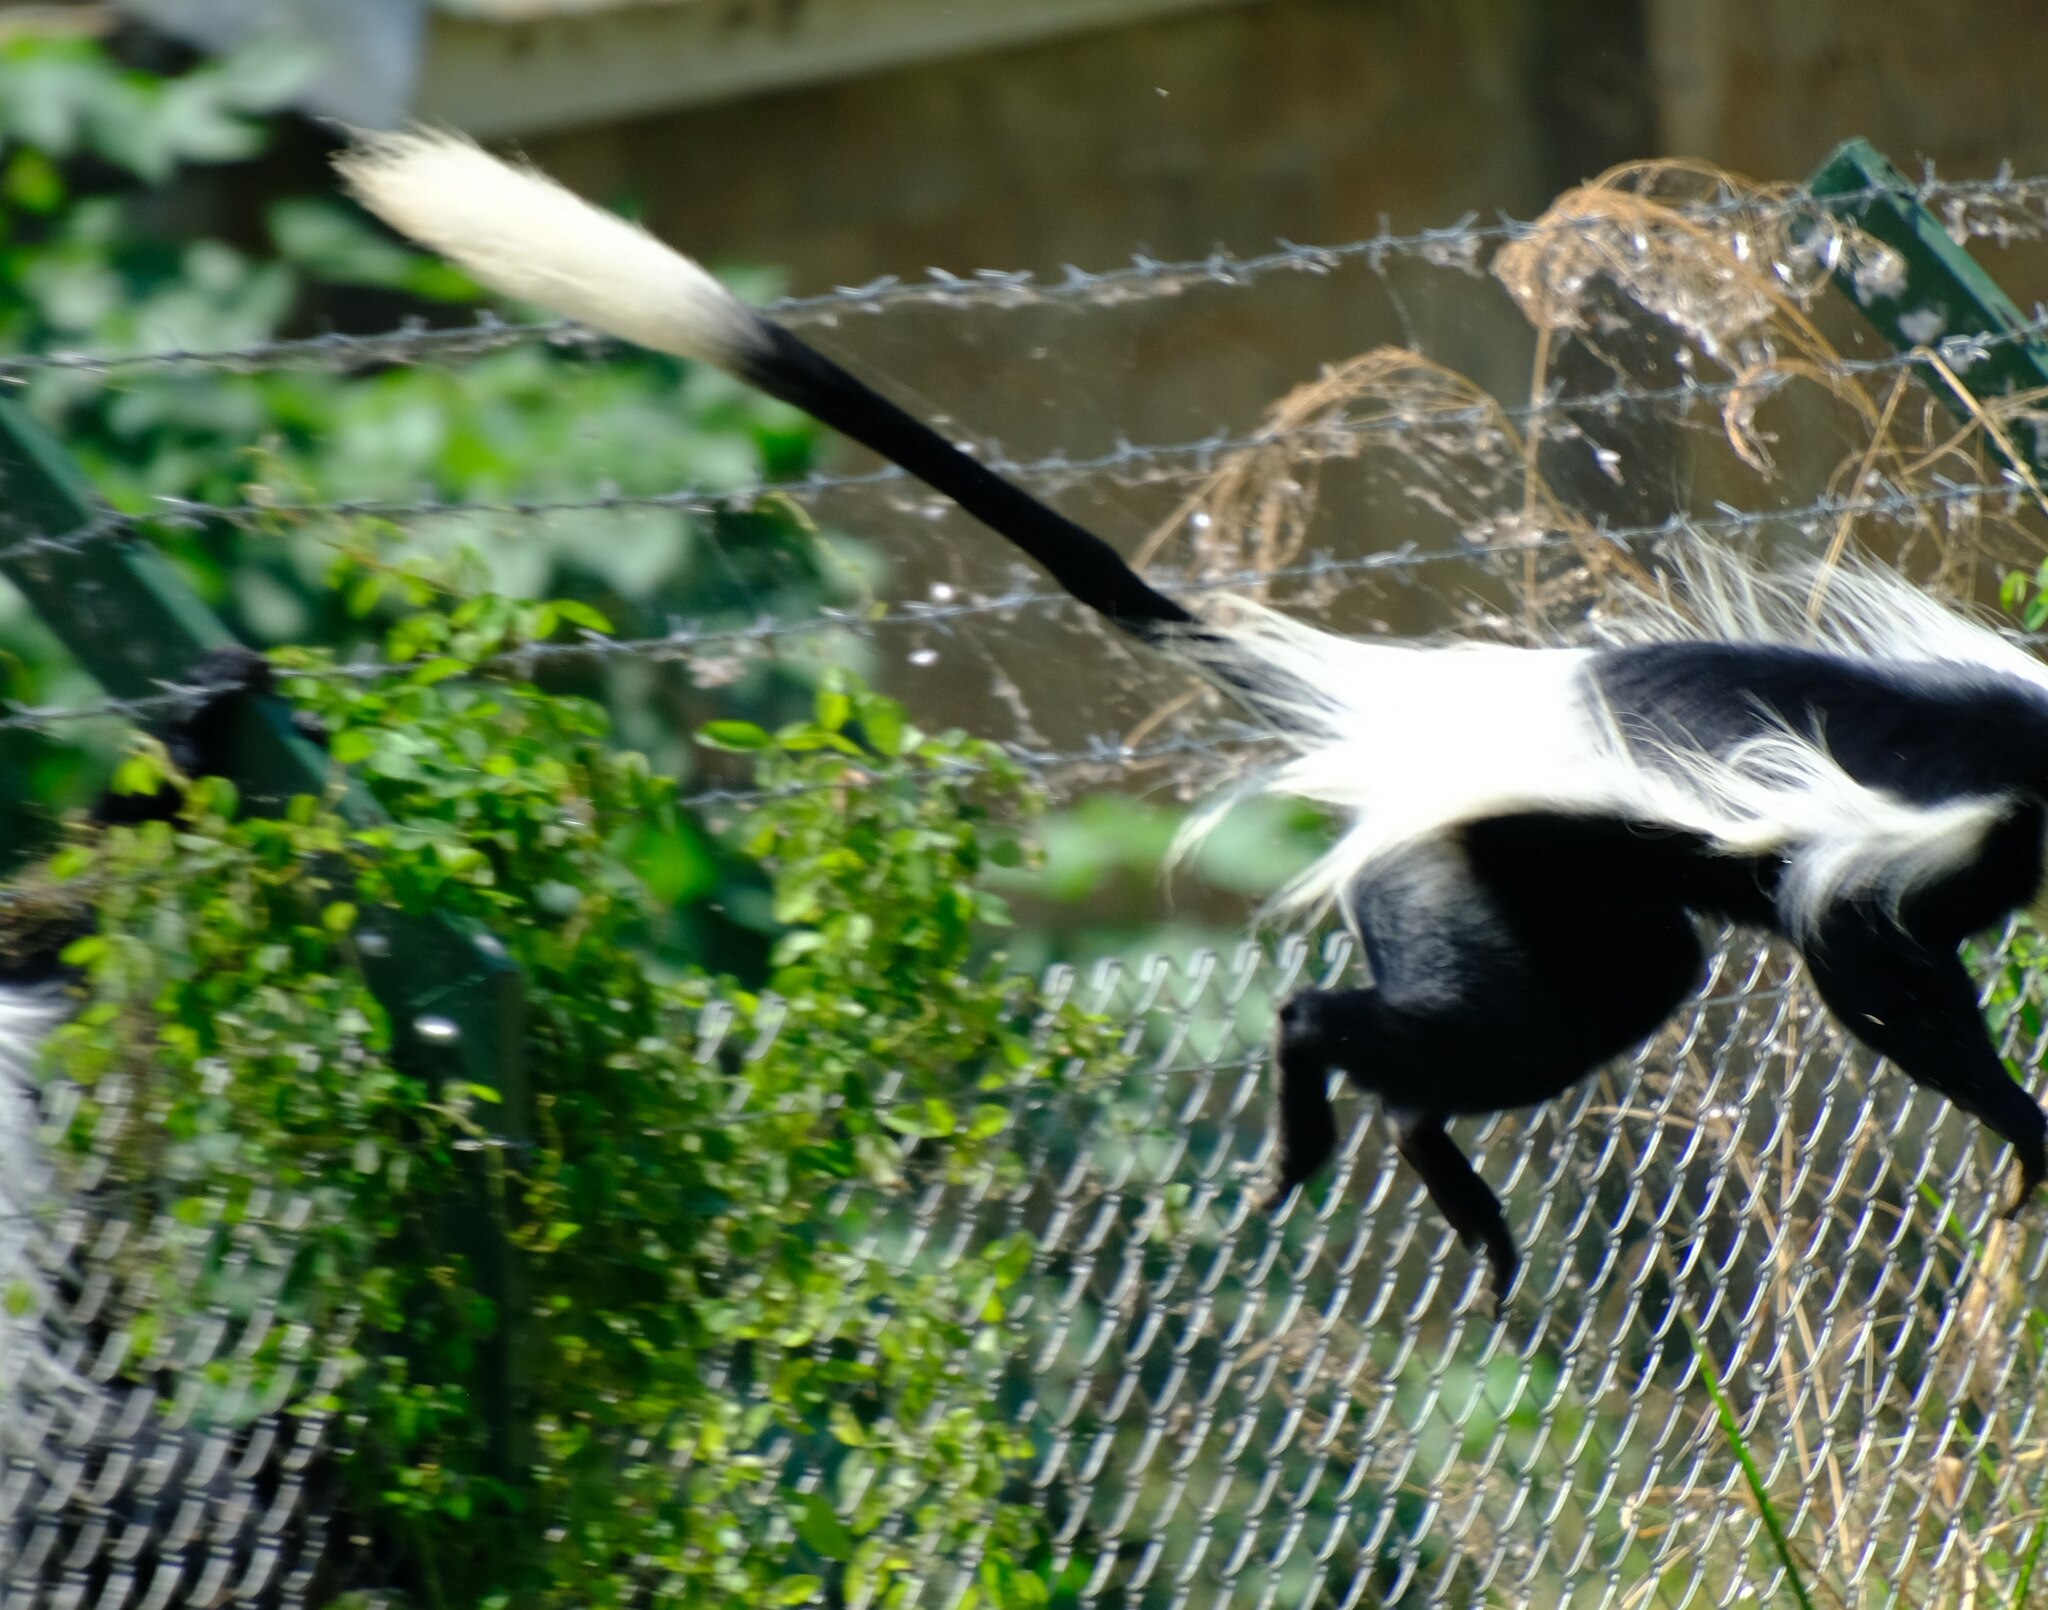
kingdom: Animalia
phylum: Chordata
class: Mammalia
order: Primates
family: Cercopithecidae
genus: Colobus
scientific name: Colobus guereza
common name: Mantled guereza
